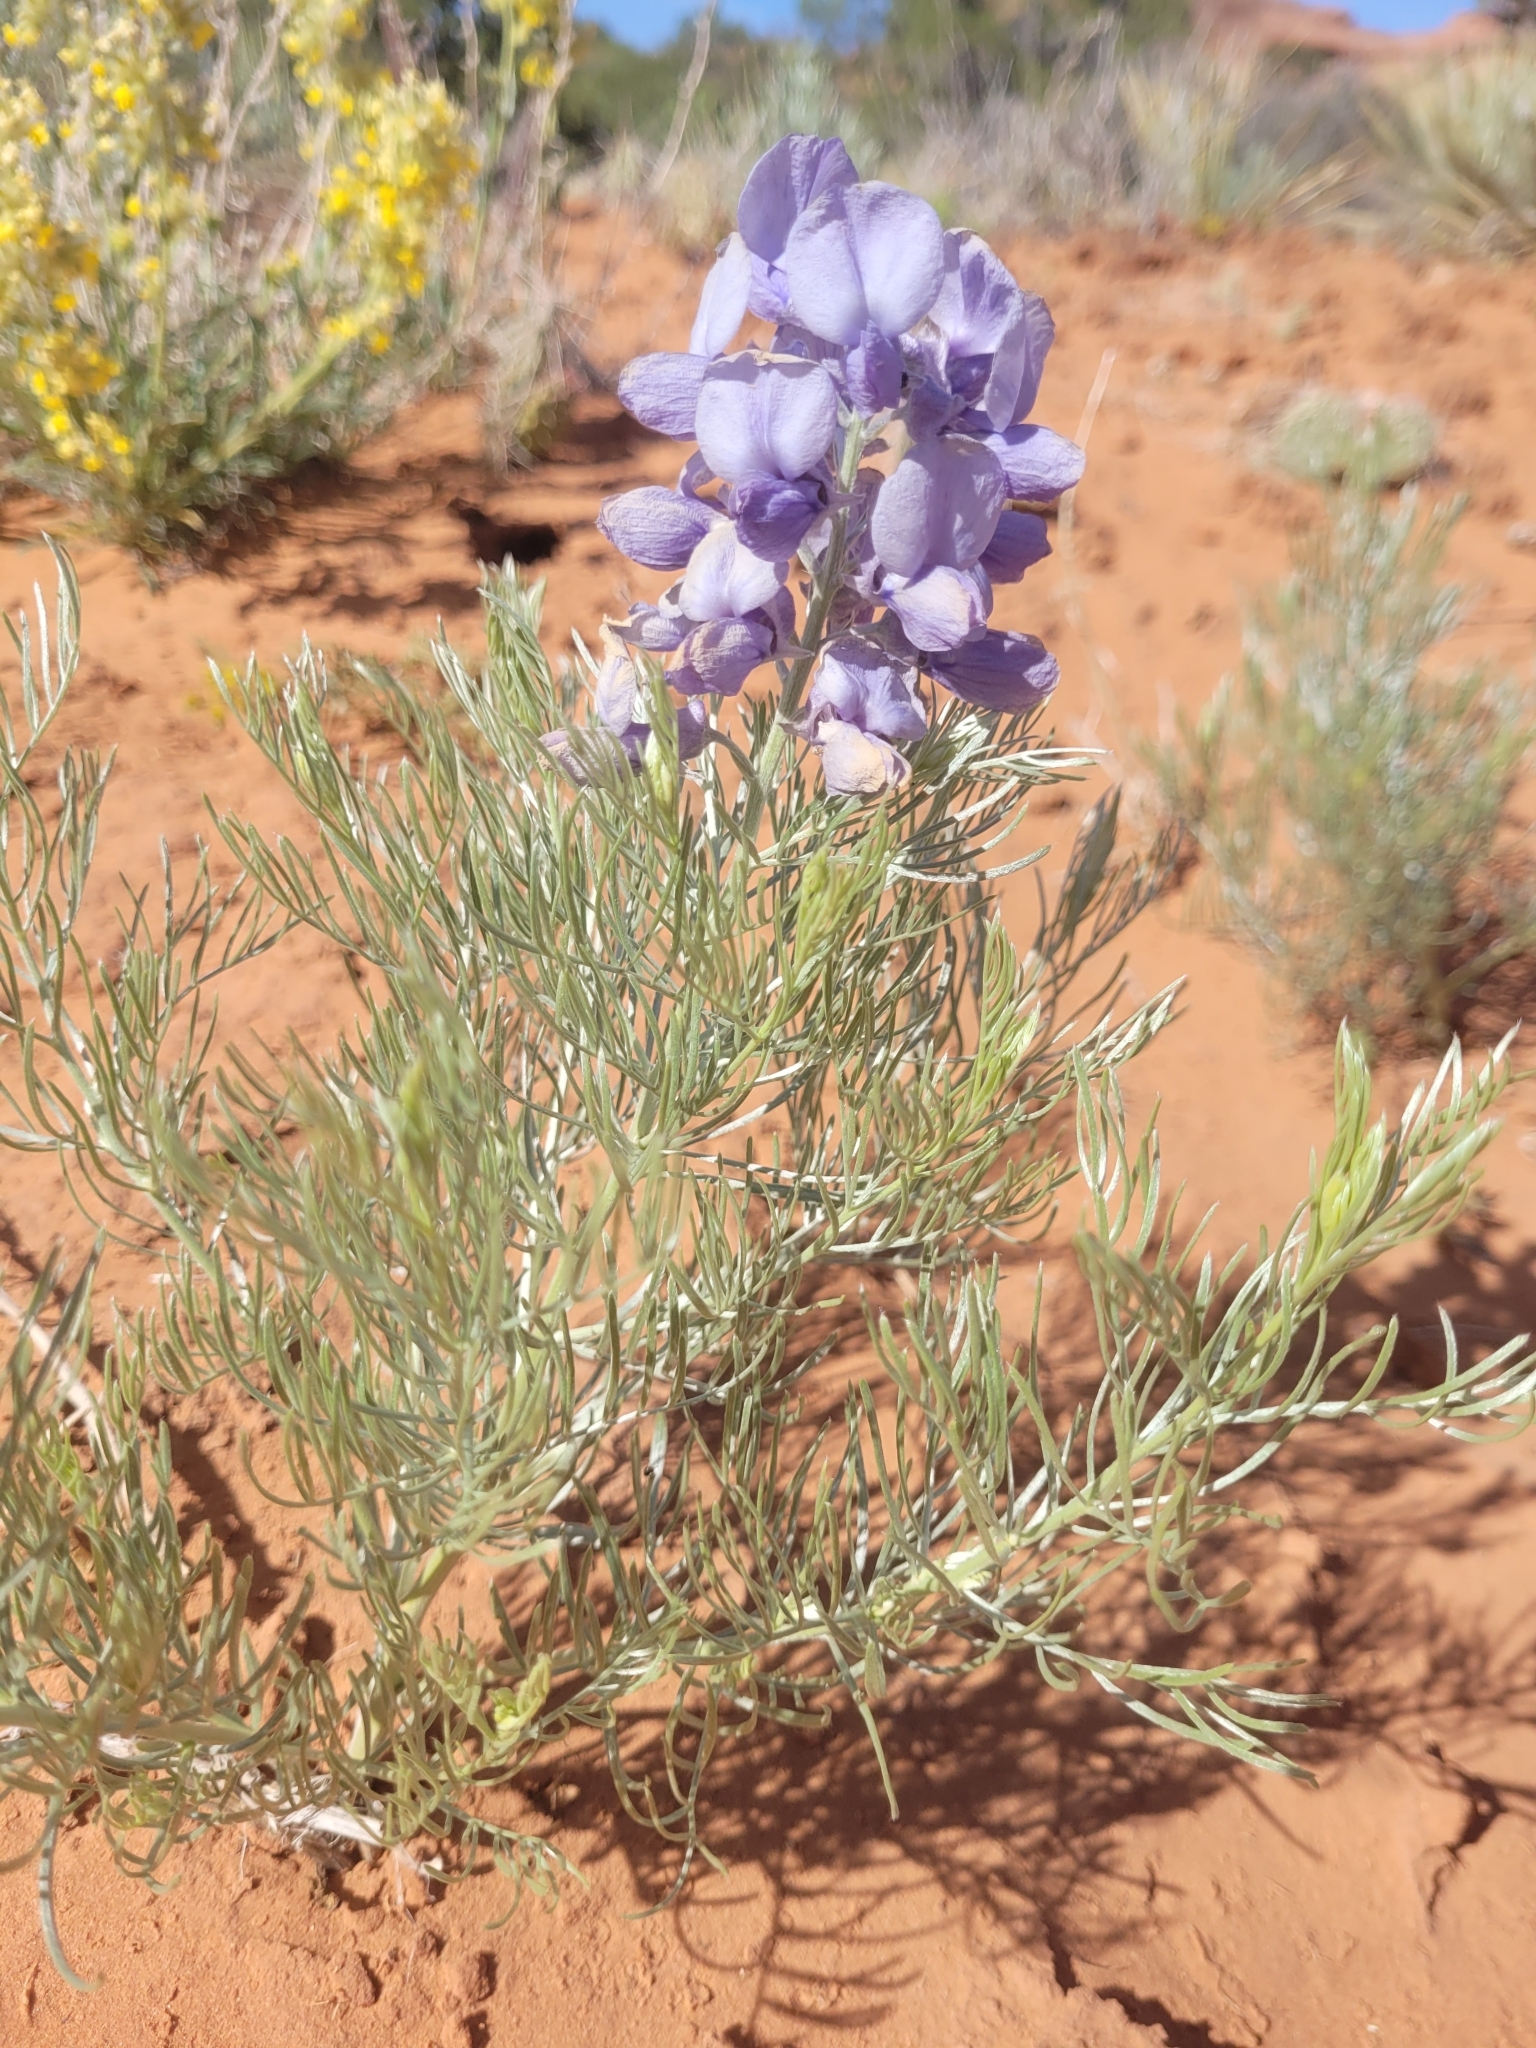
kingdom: Plantae
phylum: Tracheophyta
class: Magnoliopsida
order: Fabales
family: Fabaceae
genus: Sophora
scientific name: Sophora stenophylla
